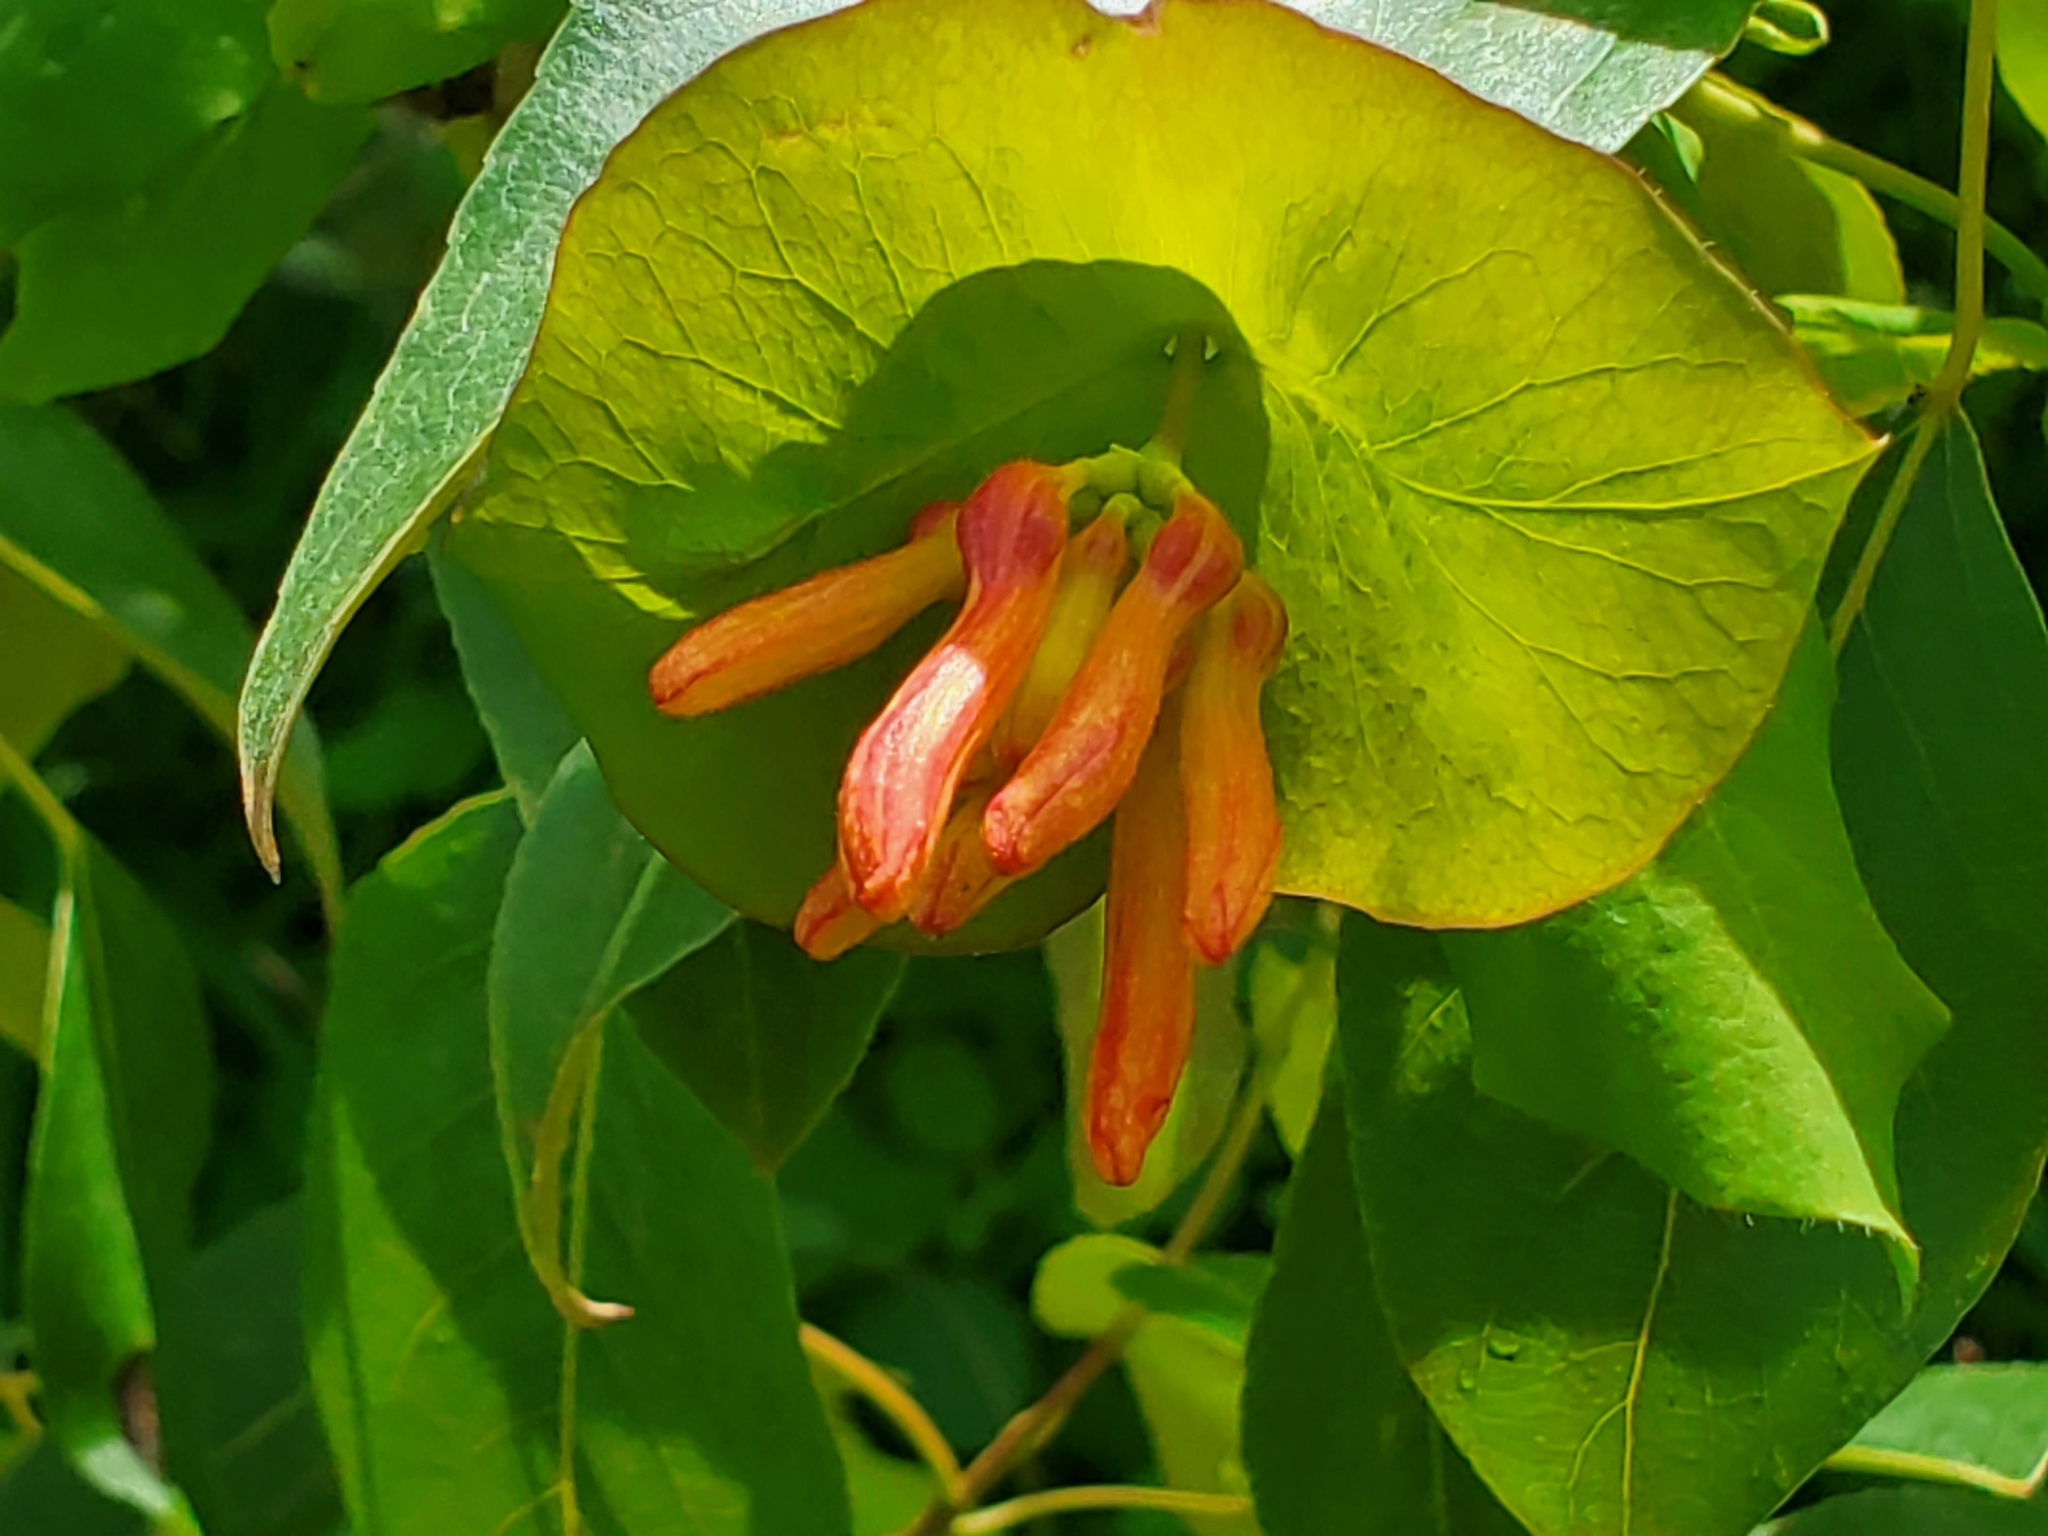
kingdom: Plantae
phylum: Tracheophyta
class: Magnoliopsida
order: Dipsacales
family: Caprifoliaceae
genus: Lonicera
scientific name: Lonicera ciliosa
